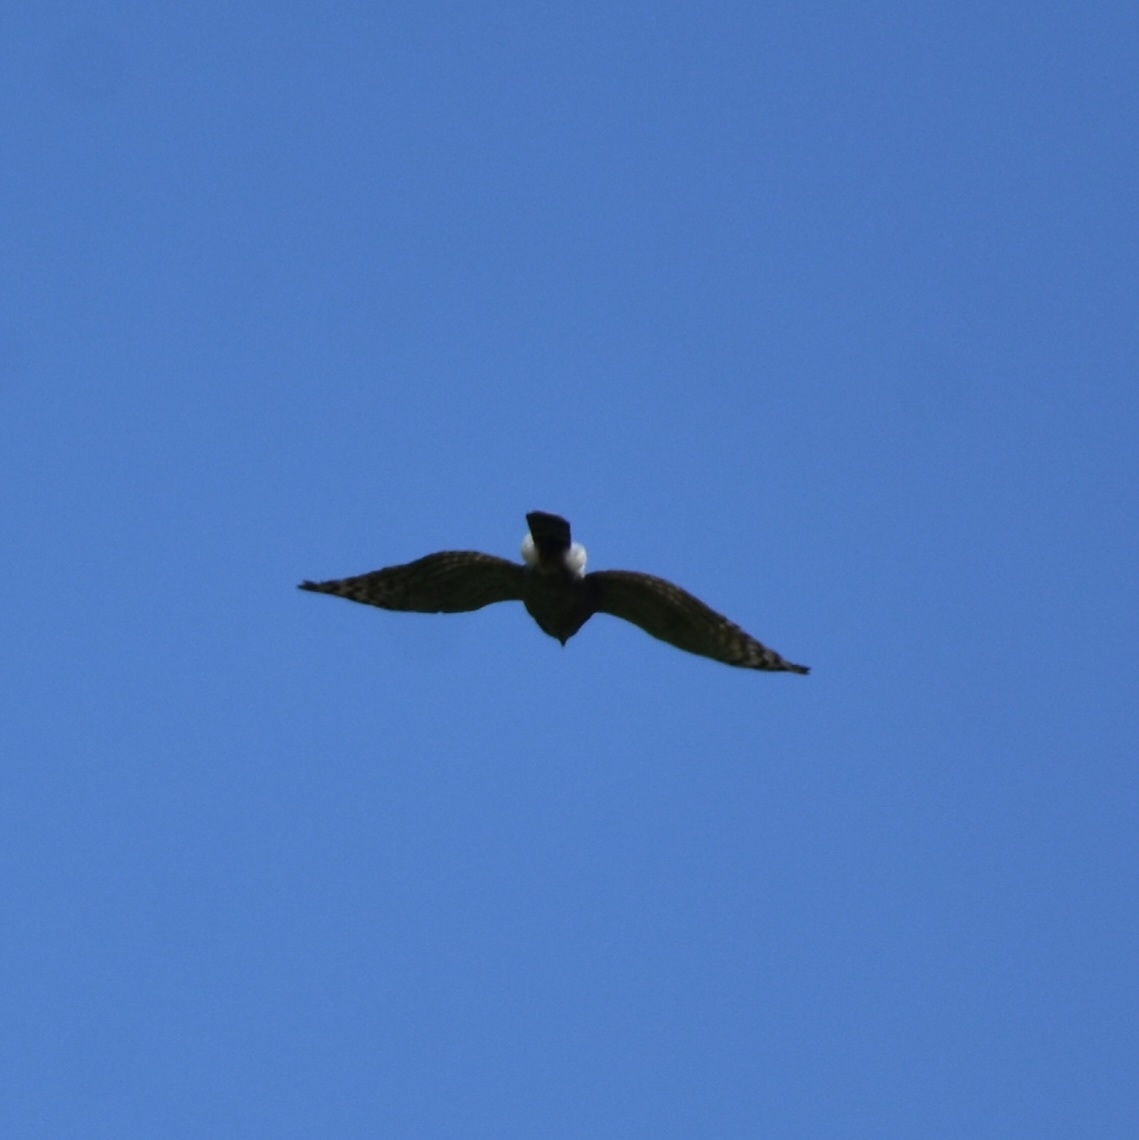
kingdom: Animalia
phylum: Chordata
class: Aves
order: Accipitriformes
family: Accipitridae
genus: Accipiter
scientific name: Accipiter trivirgatus
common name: Crested goshawk
